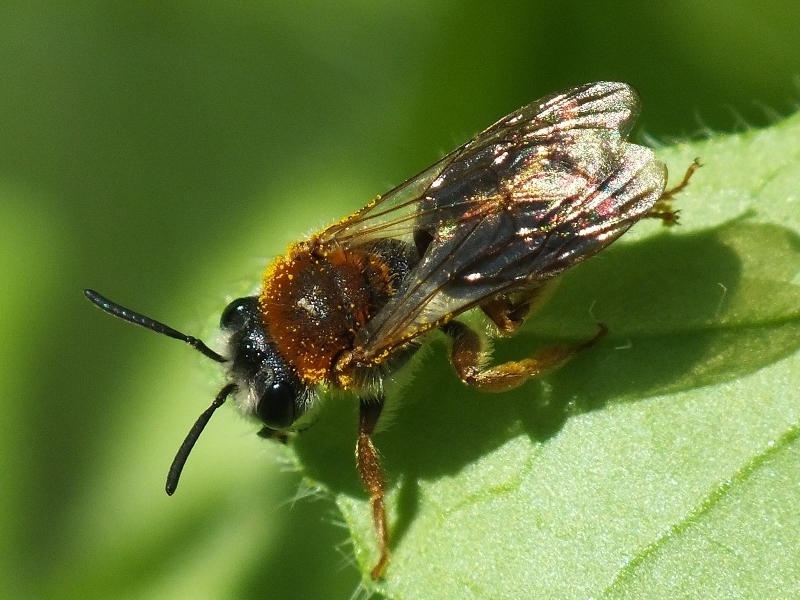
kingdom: Animalia
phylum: Arthropoda
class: Insecta
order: Hymenoptera
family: Andrenidae
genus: Andrena
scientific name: Andrena haemorrhoa
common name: Early mining bee
